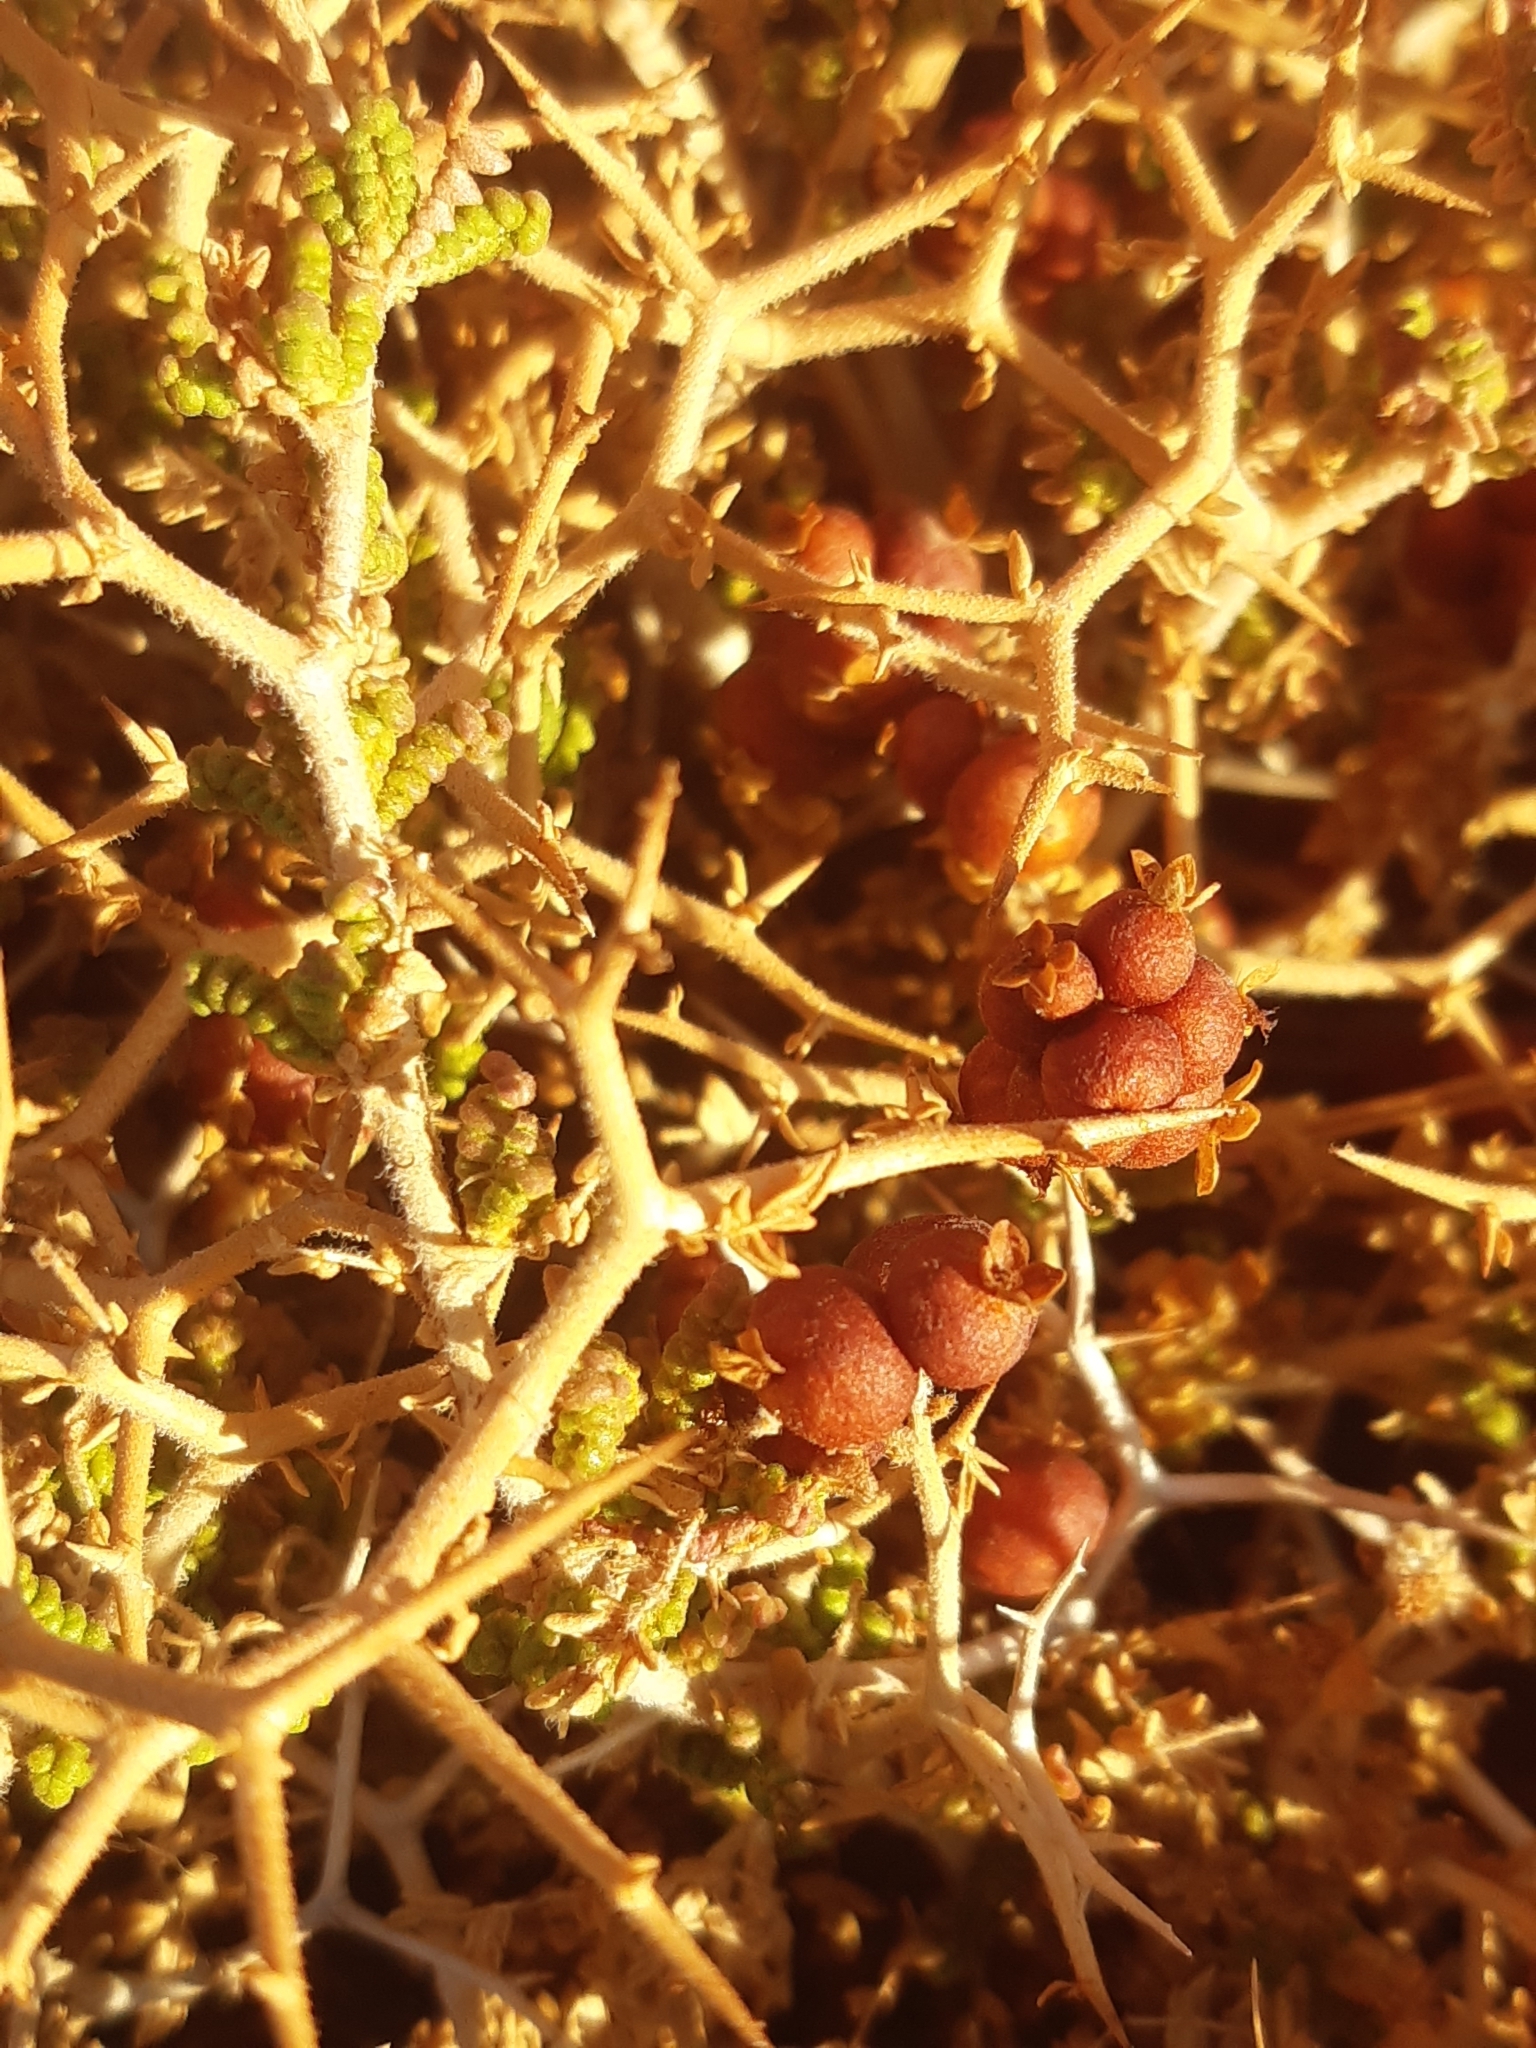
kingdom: Plantae
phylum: Tracheophyta
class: Magnoliopsida
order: Rosales
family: Rosaceae
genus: Sarcopoterium
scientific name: Sarcopoterium spinosum
